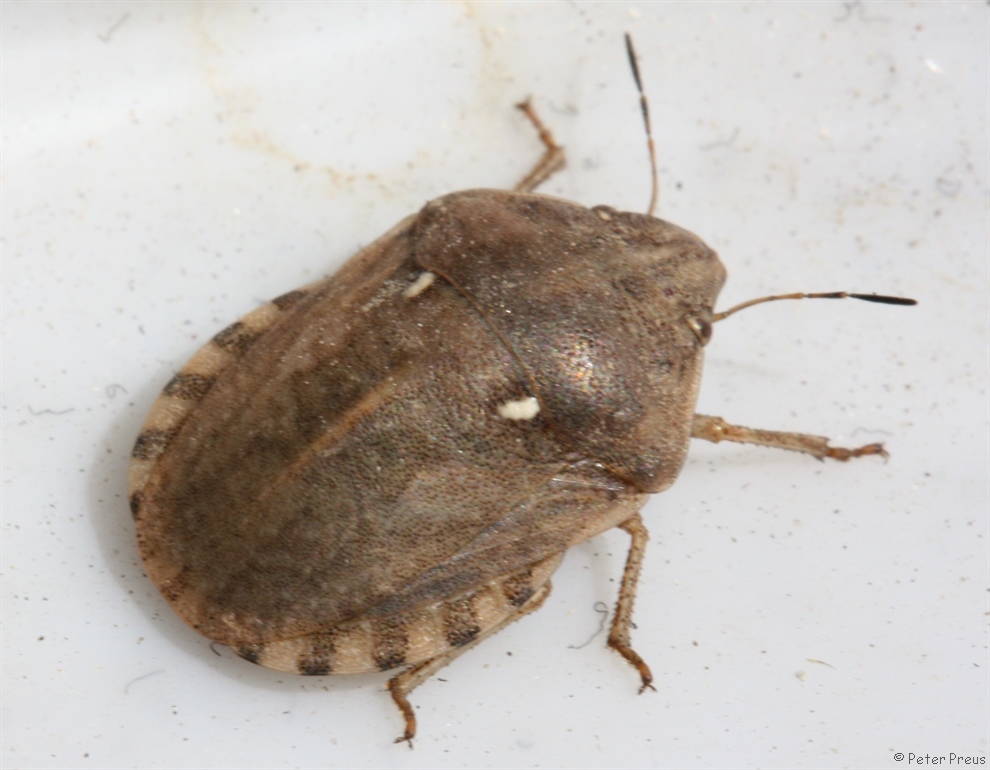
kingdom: Animalia
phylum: Arthropoda
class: Insecta
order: Hemiptera
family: Scutelleridae
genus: Eurygaster
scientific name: Eurygaster maura
